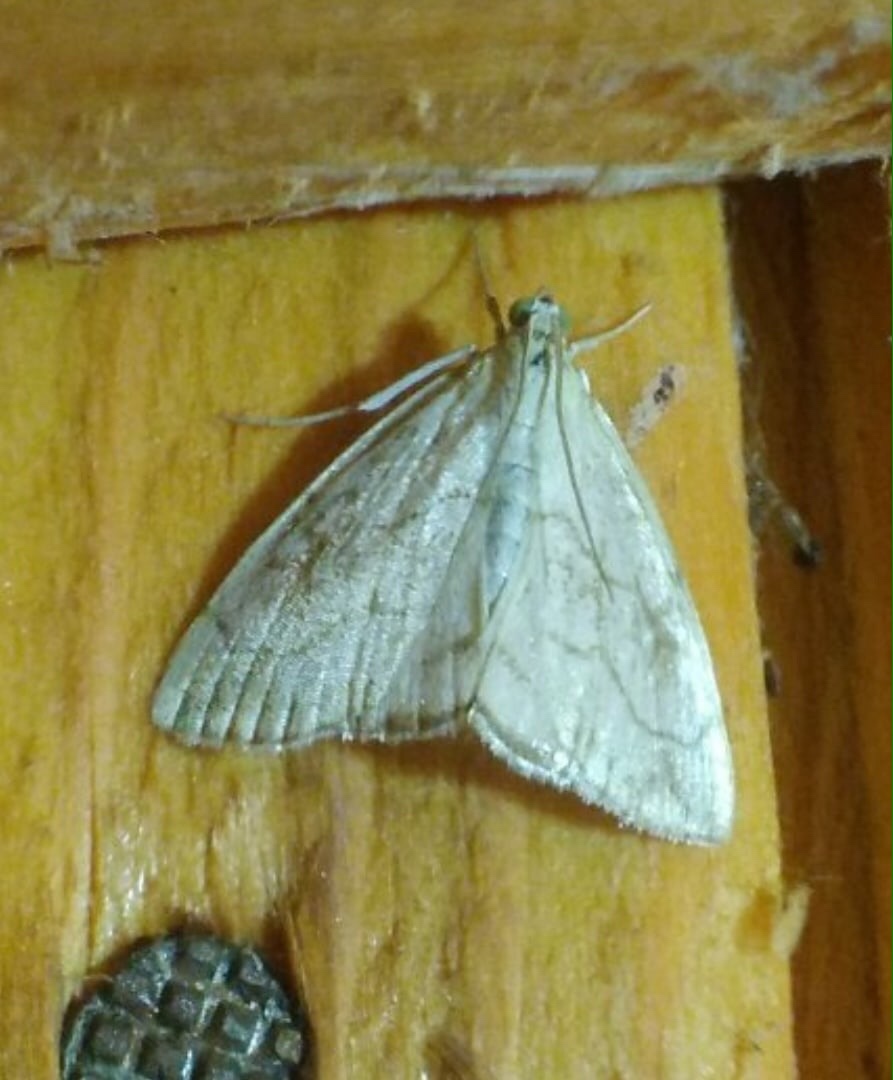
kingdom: Animalia
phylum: Arthropoda
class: Insecta
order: Lepidoptera
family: Crambidae
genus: Evergestis
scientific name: Evergestis pallidata
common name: Chequered pearl
